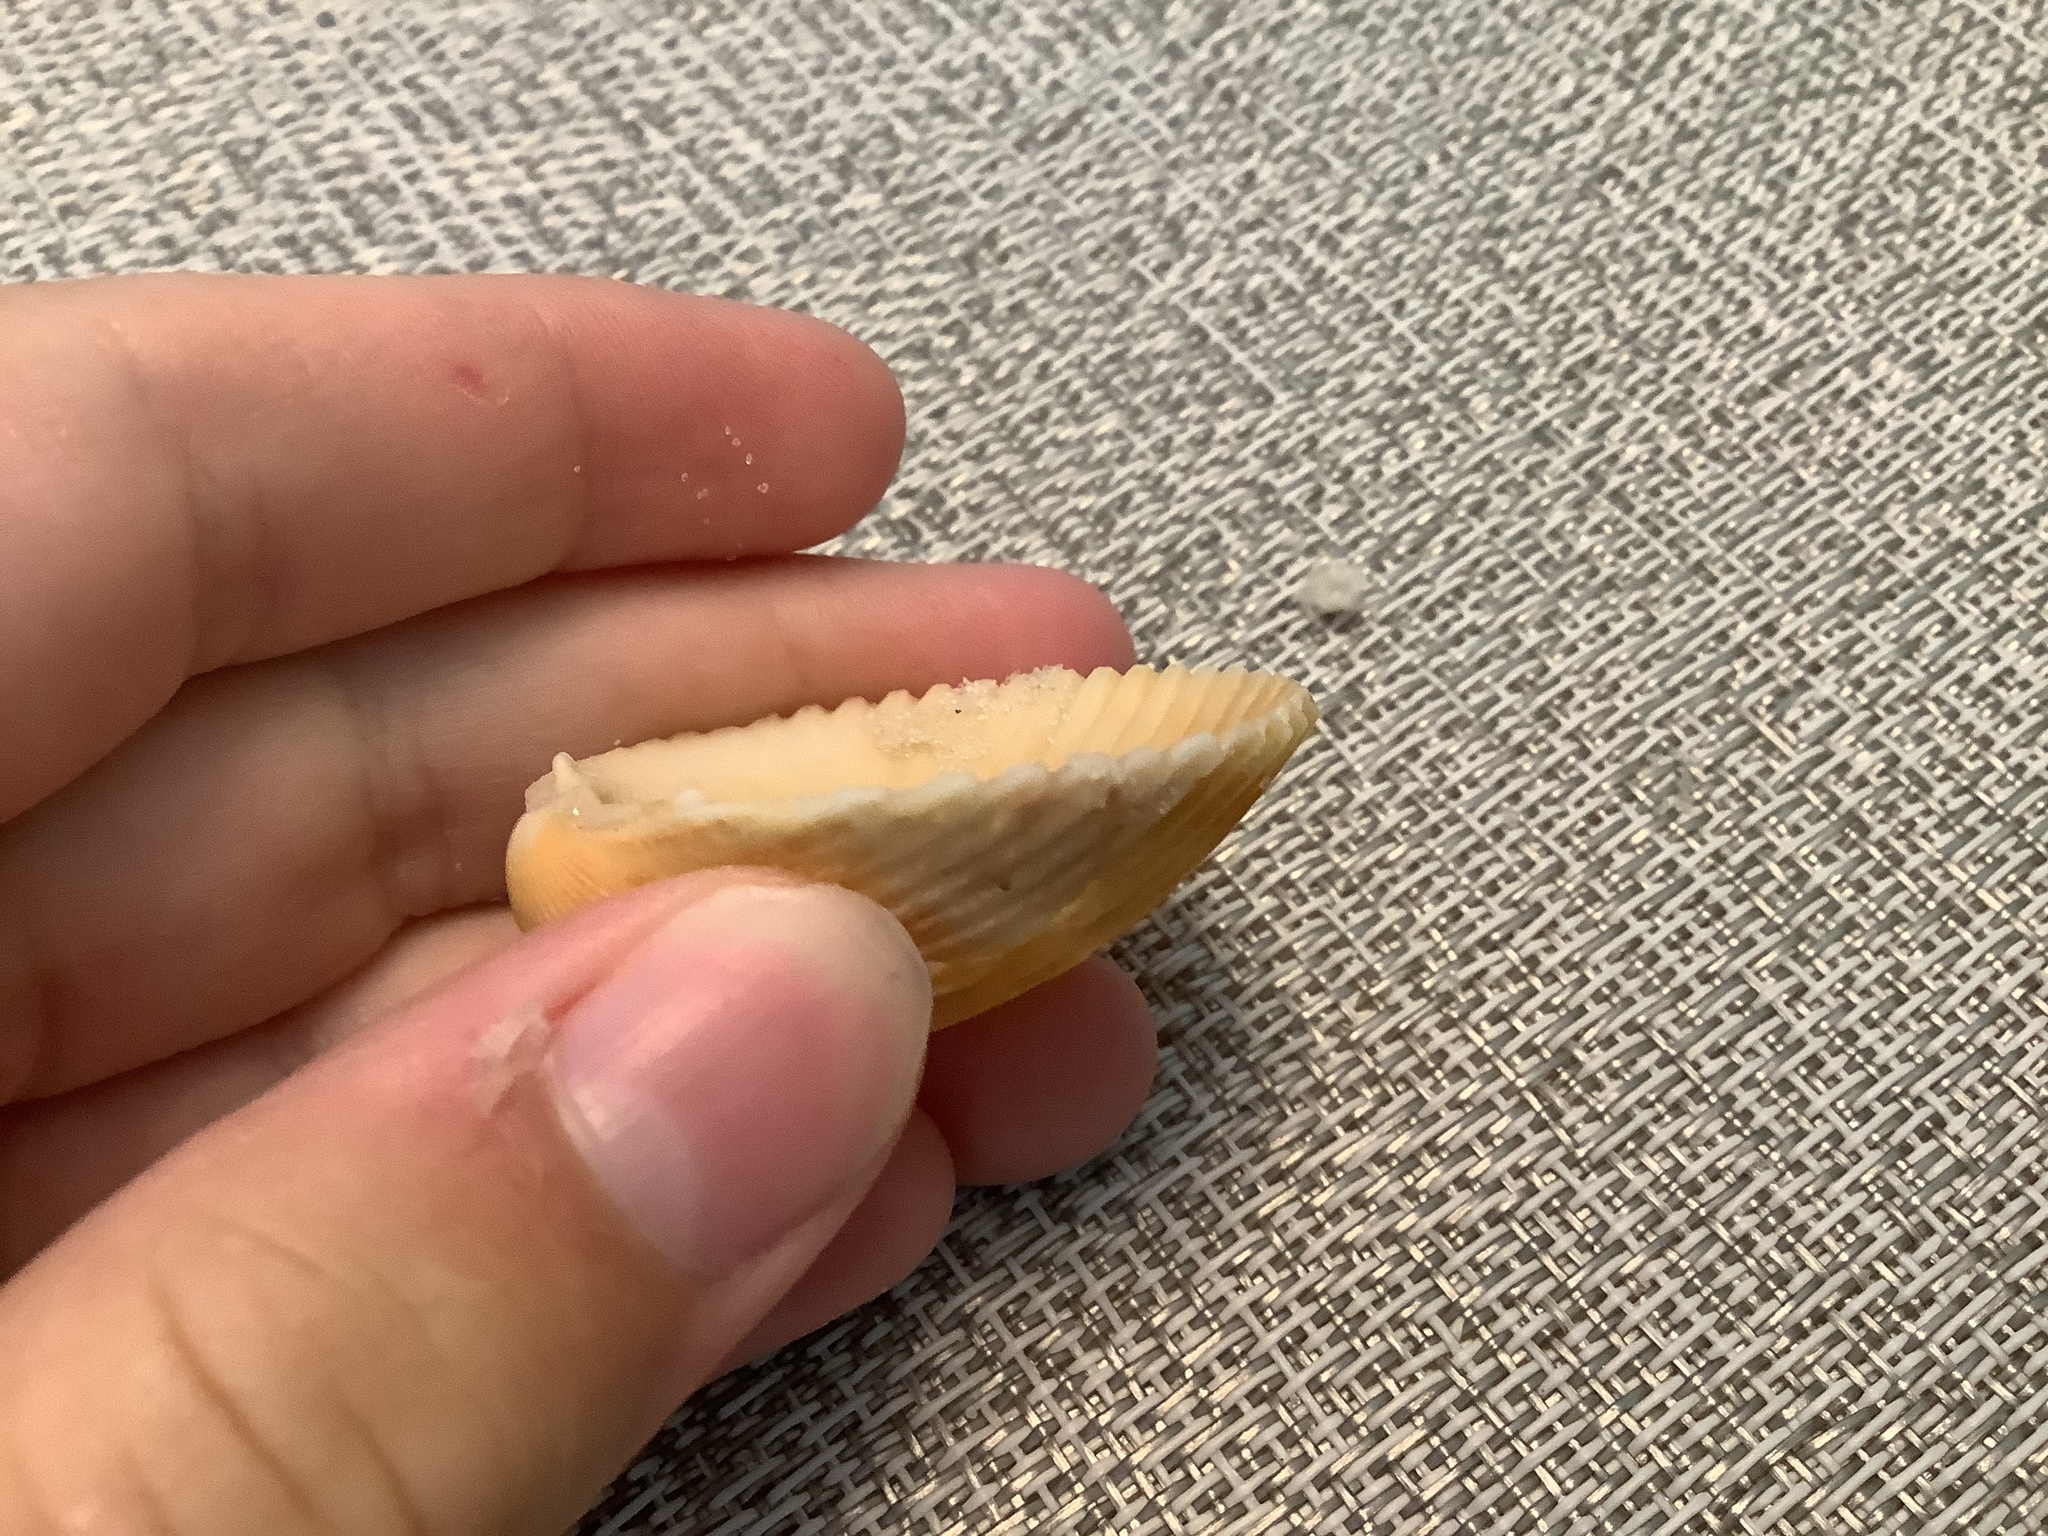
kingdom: Animalia
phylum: Mollusca
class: Bivalvia
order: Cardiida
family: Cardiidae
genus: Dallocardia
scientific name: Dallocardia muricata
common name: Yellow pricklycockle
